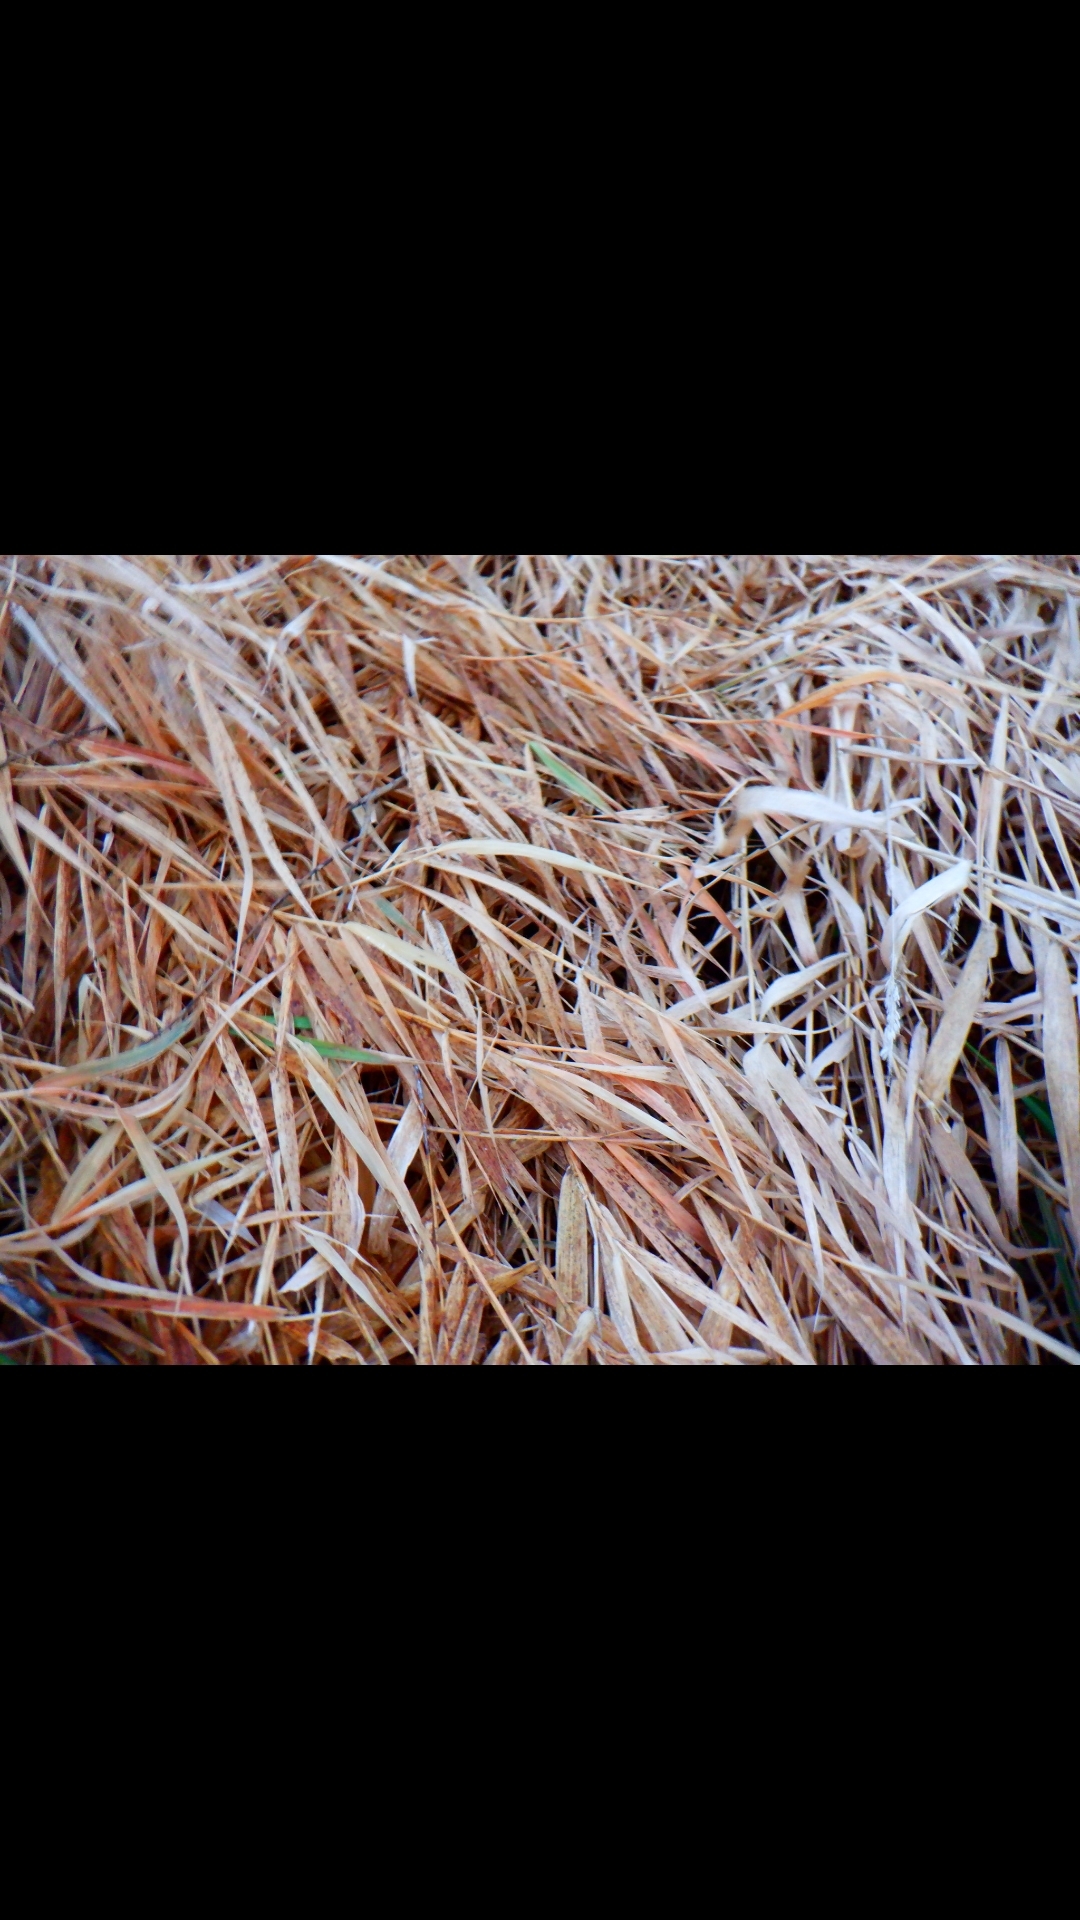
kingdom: Plantae
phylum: Tracheophyta
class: Liliopsida
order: Poales
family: Poaceae
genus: Phalaris
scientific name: Phalaris arundinacea
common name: Reed canary-grass
